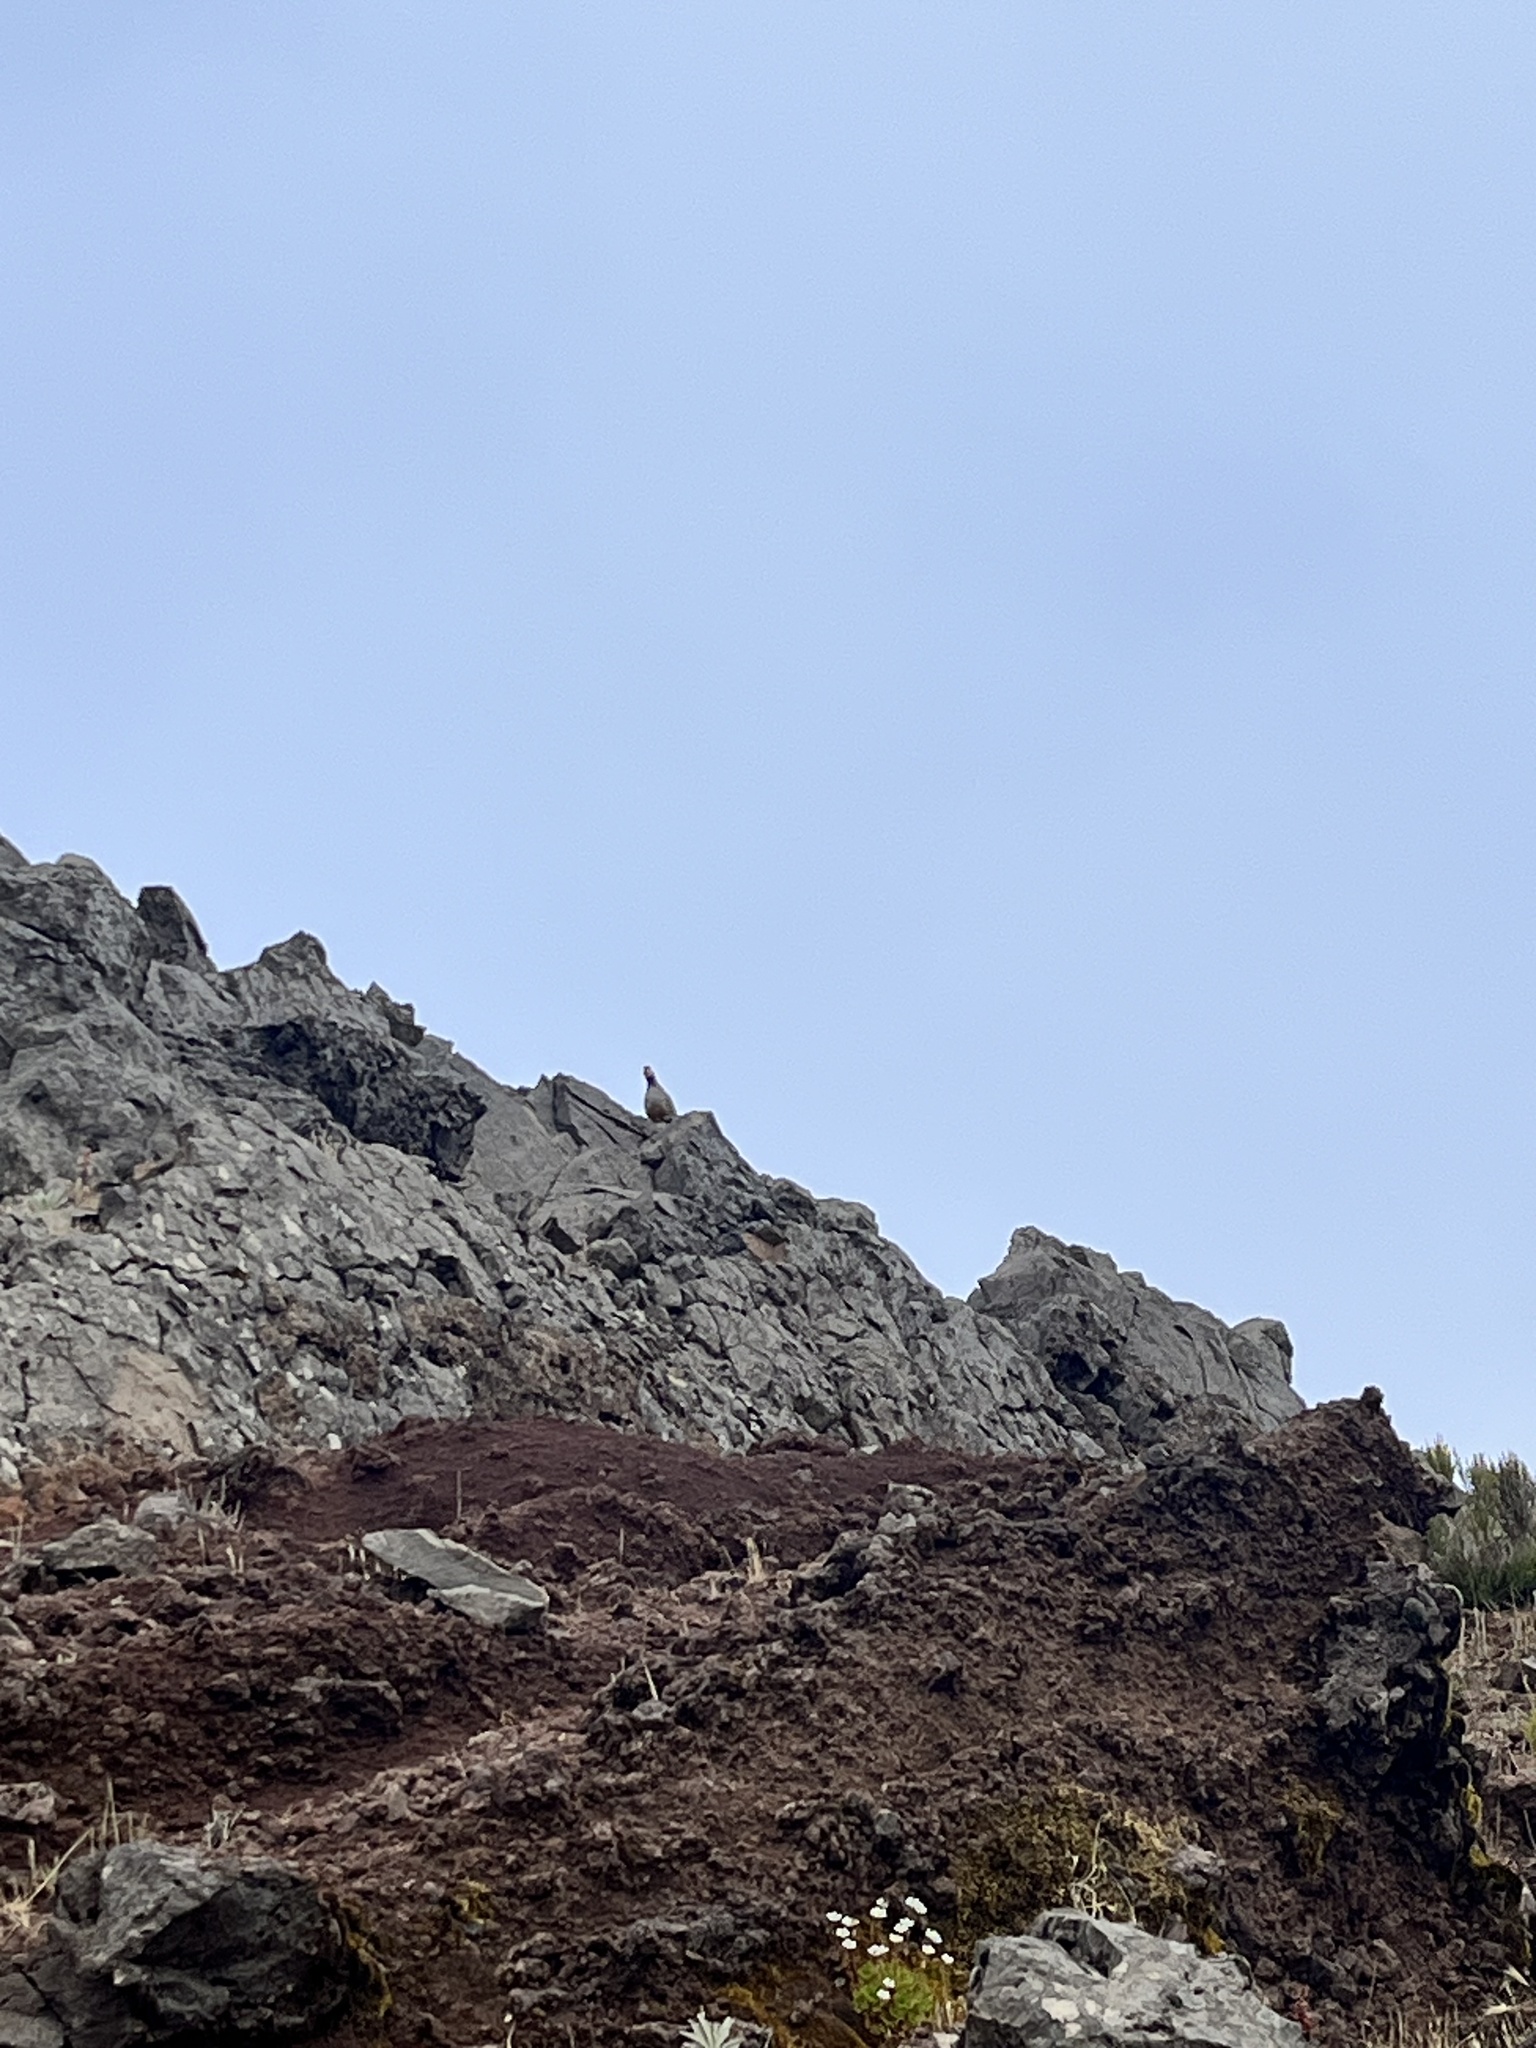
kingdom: Animalia
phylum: Chordata
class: Aves
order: Galliformes
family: Phasianidae
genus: Alectoris
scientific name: Alectoris rufa
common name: Red-legged partridge
